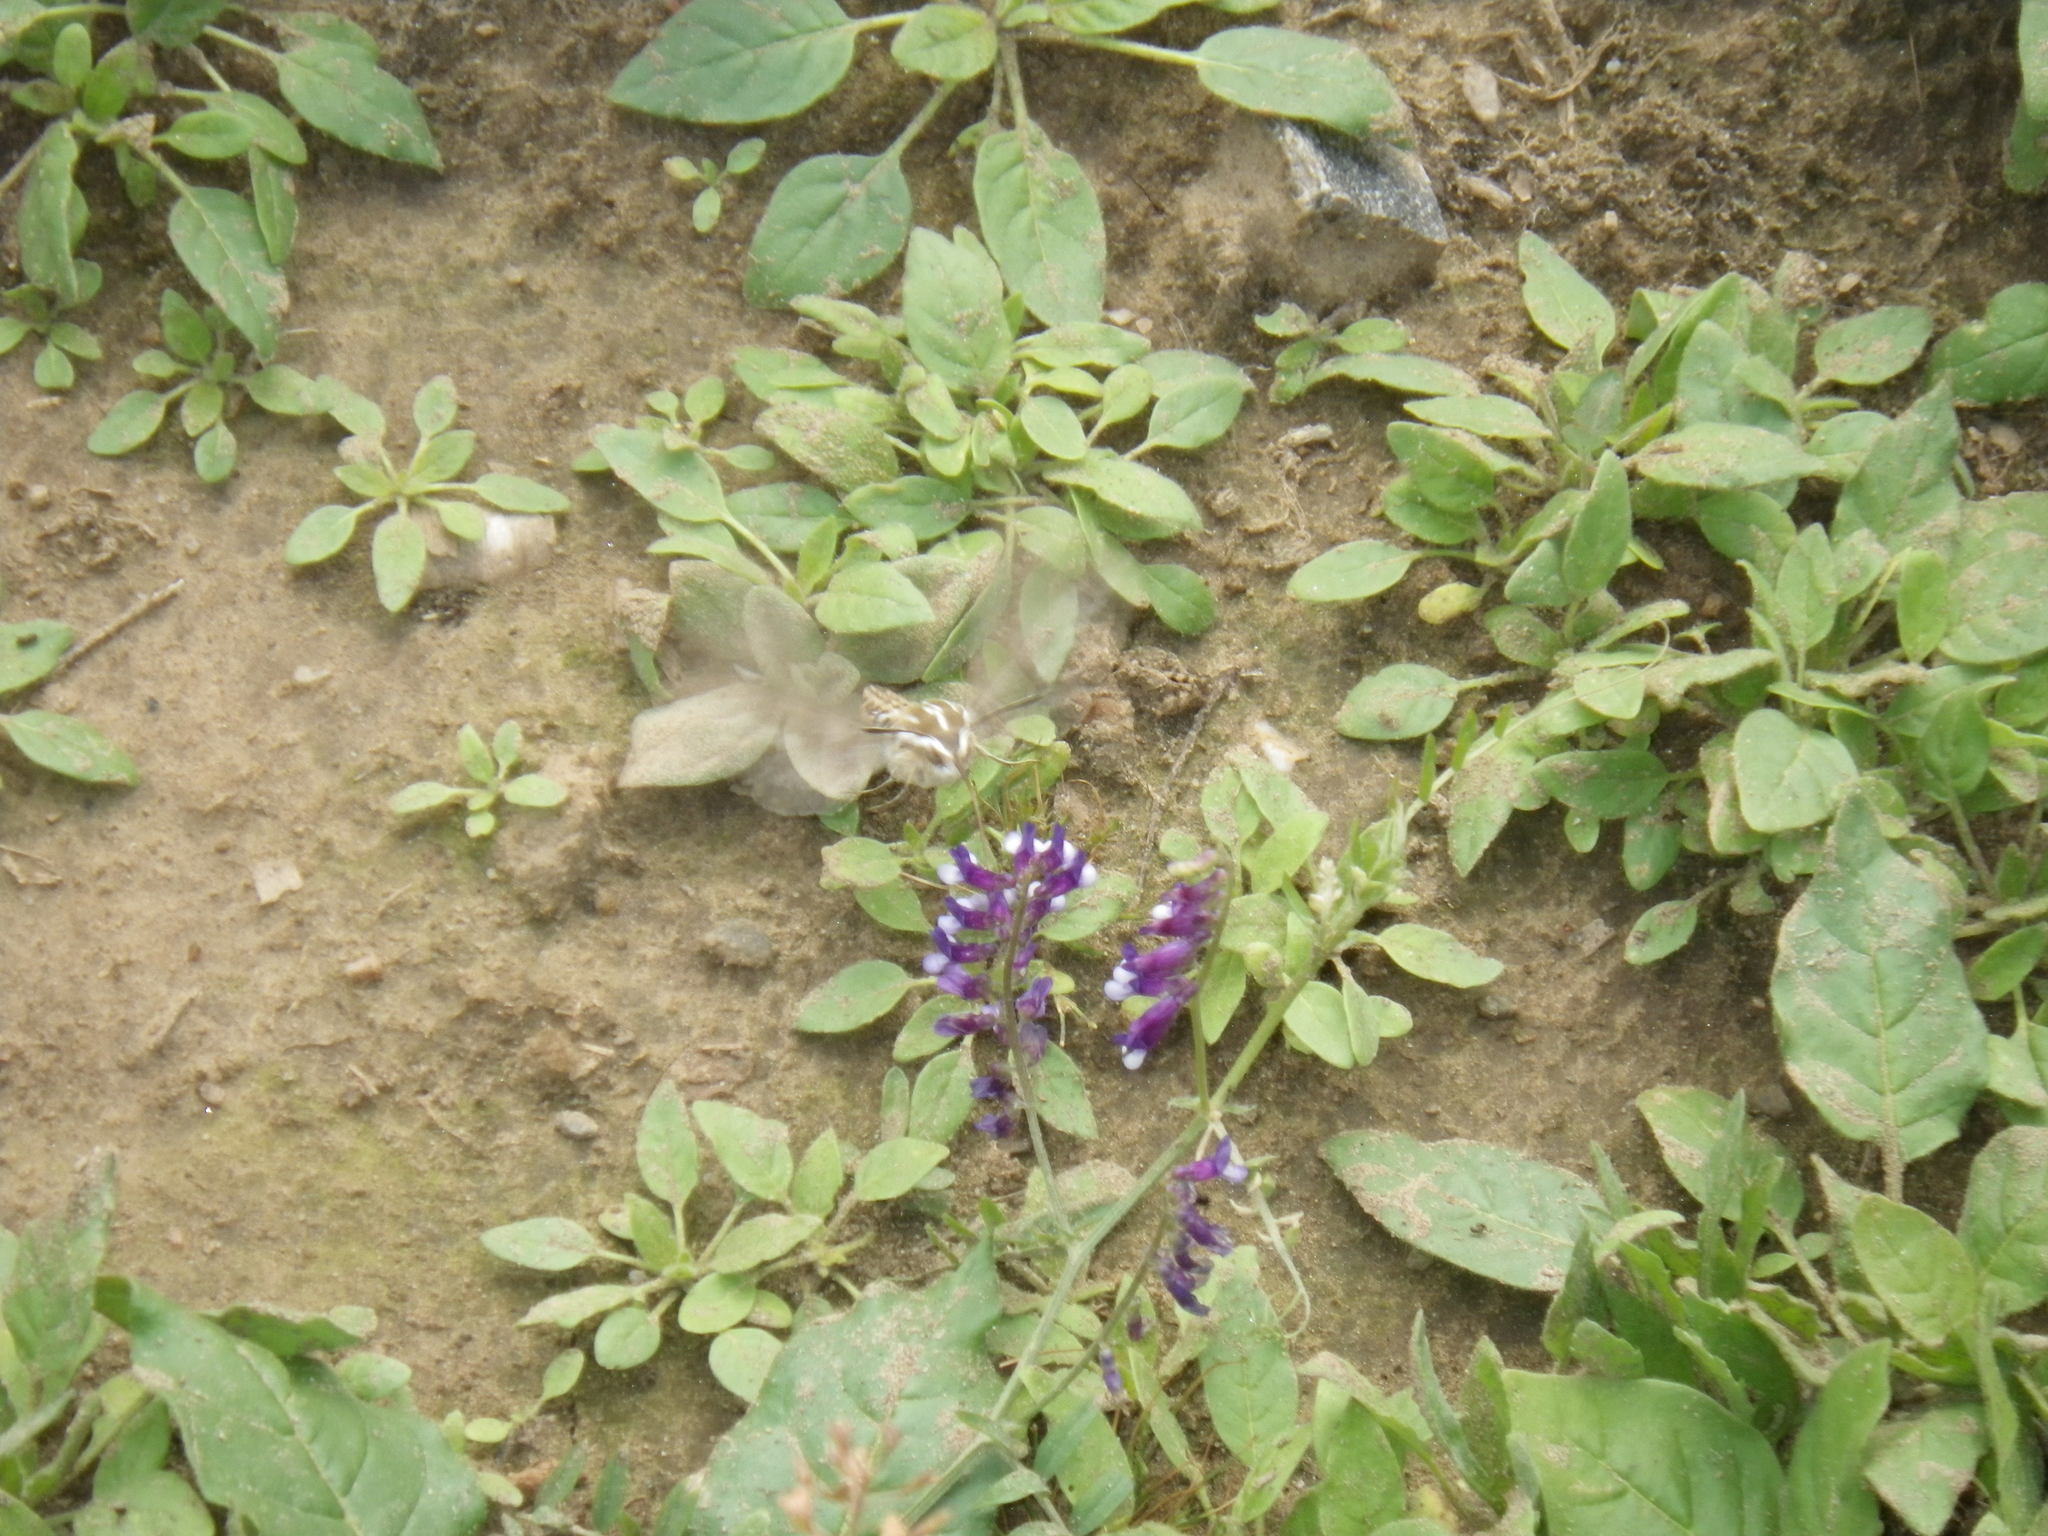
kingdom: Animalia
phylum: Arthropoda
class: Insecta
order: Lepidoptera
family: Sphingidae
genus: Hyles
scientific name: Hyles lineata
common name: White-lined sphinx
